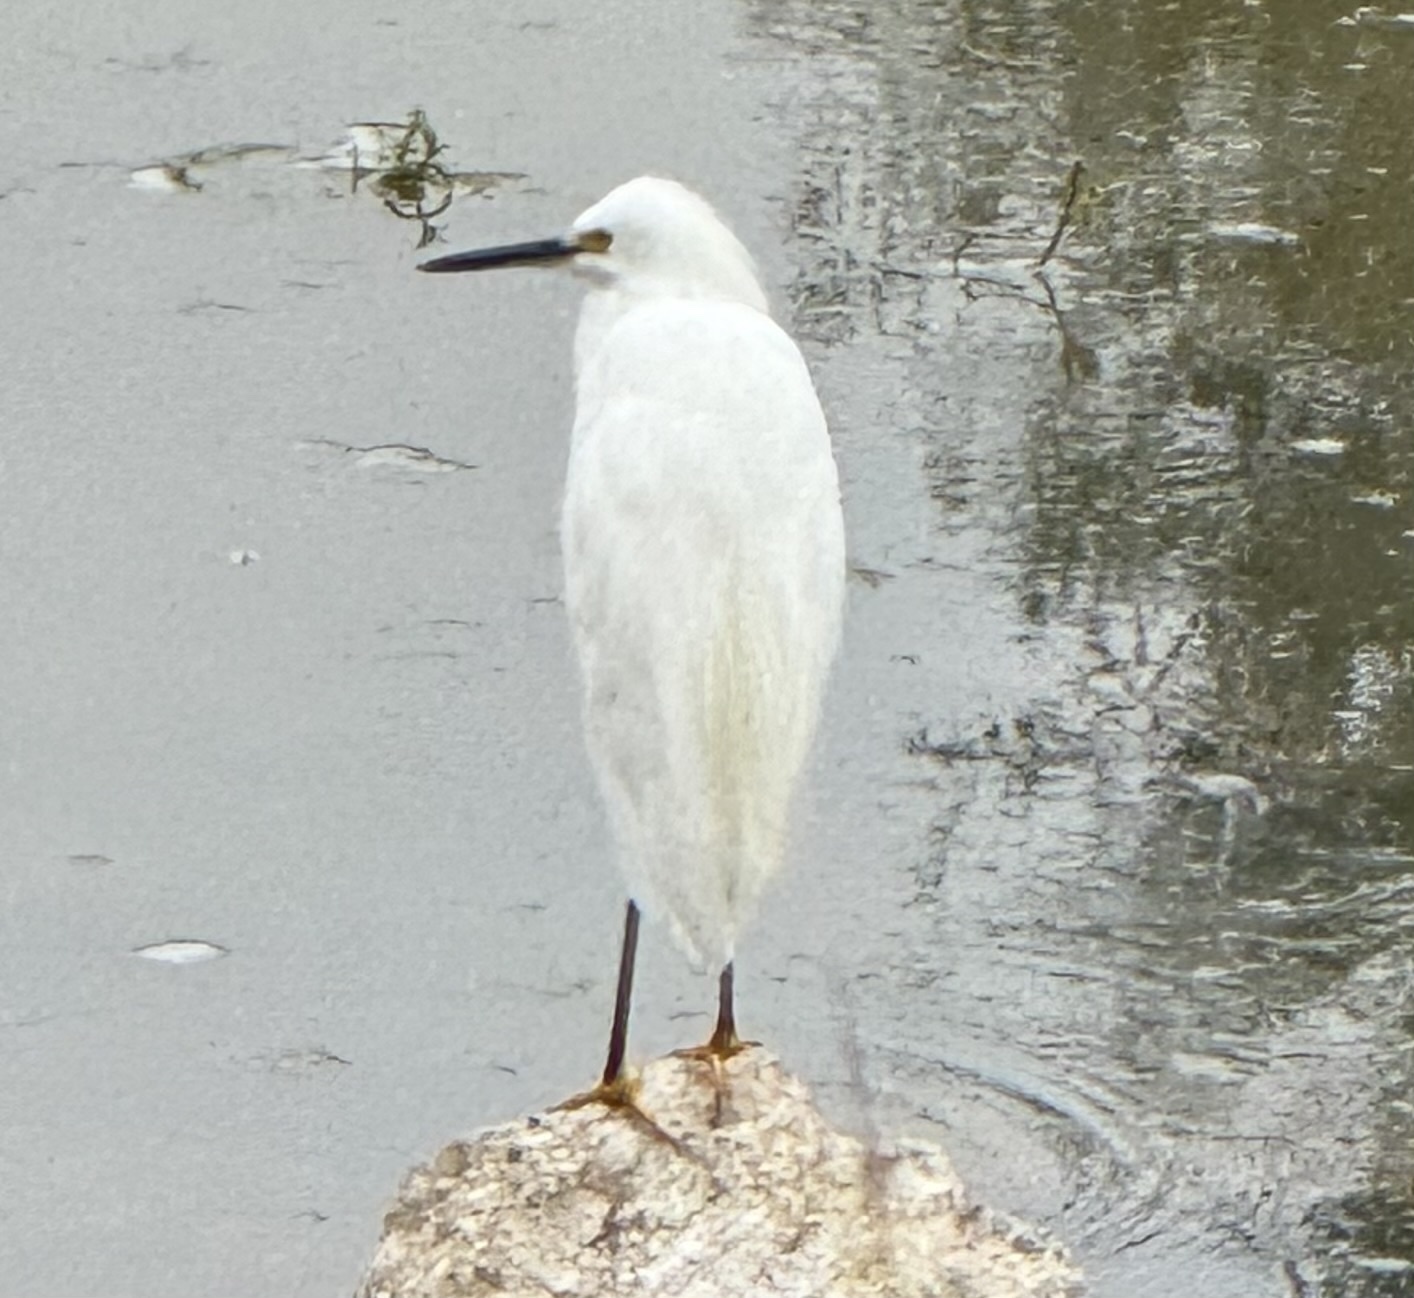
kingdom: Animalia
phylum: Chordata
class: Aves
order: Pelecaniformes
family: Ardeidae
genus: Egretta
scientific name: Egretta thula
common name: Snowy egret
